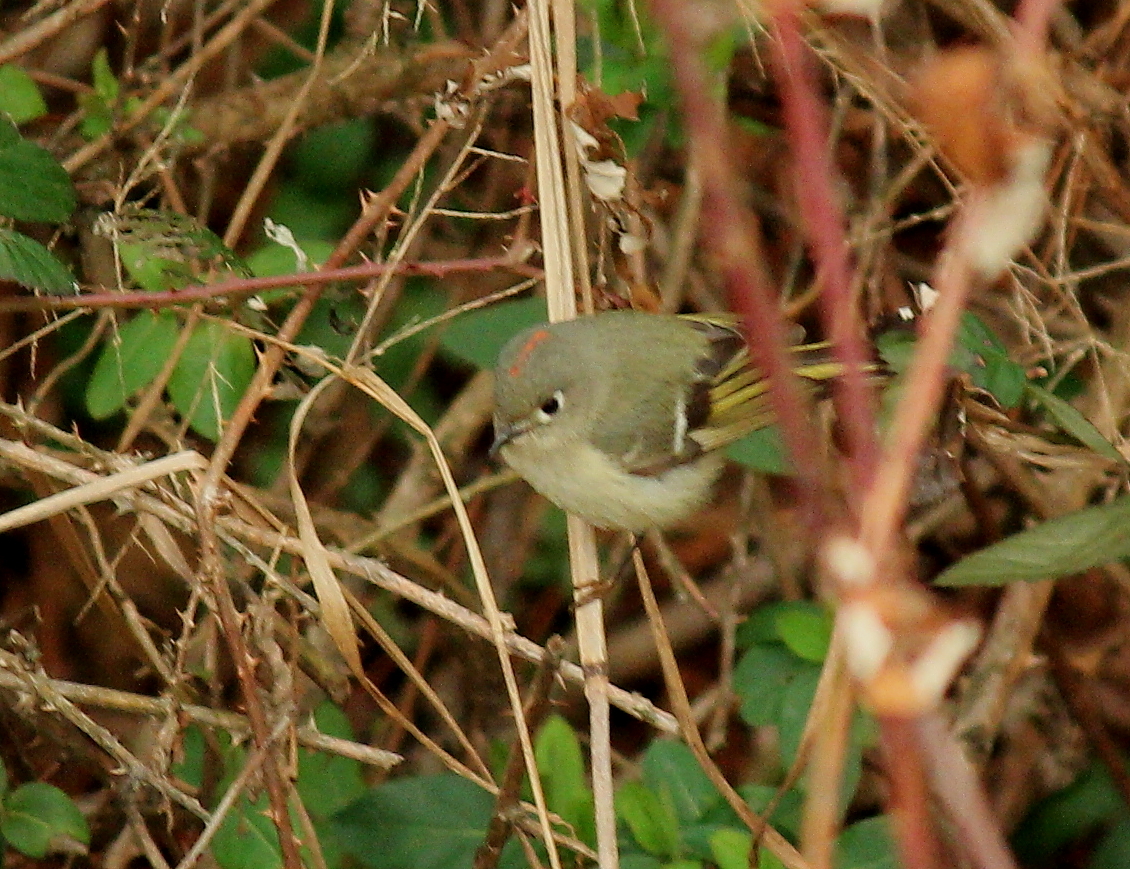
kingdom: Animalia
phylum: Chordata
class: Aves
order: Passeriformes
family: Regulidae
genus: Regulus
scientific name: Regulus calendula
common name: Ruby-crowned kinglet
